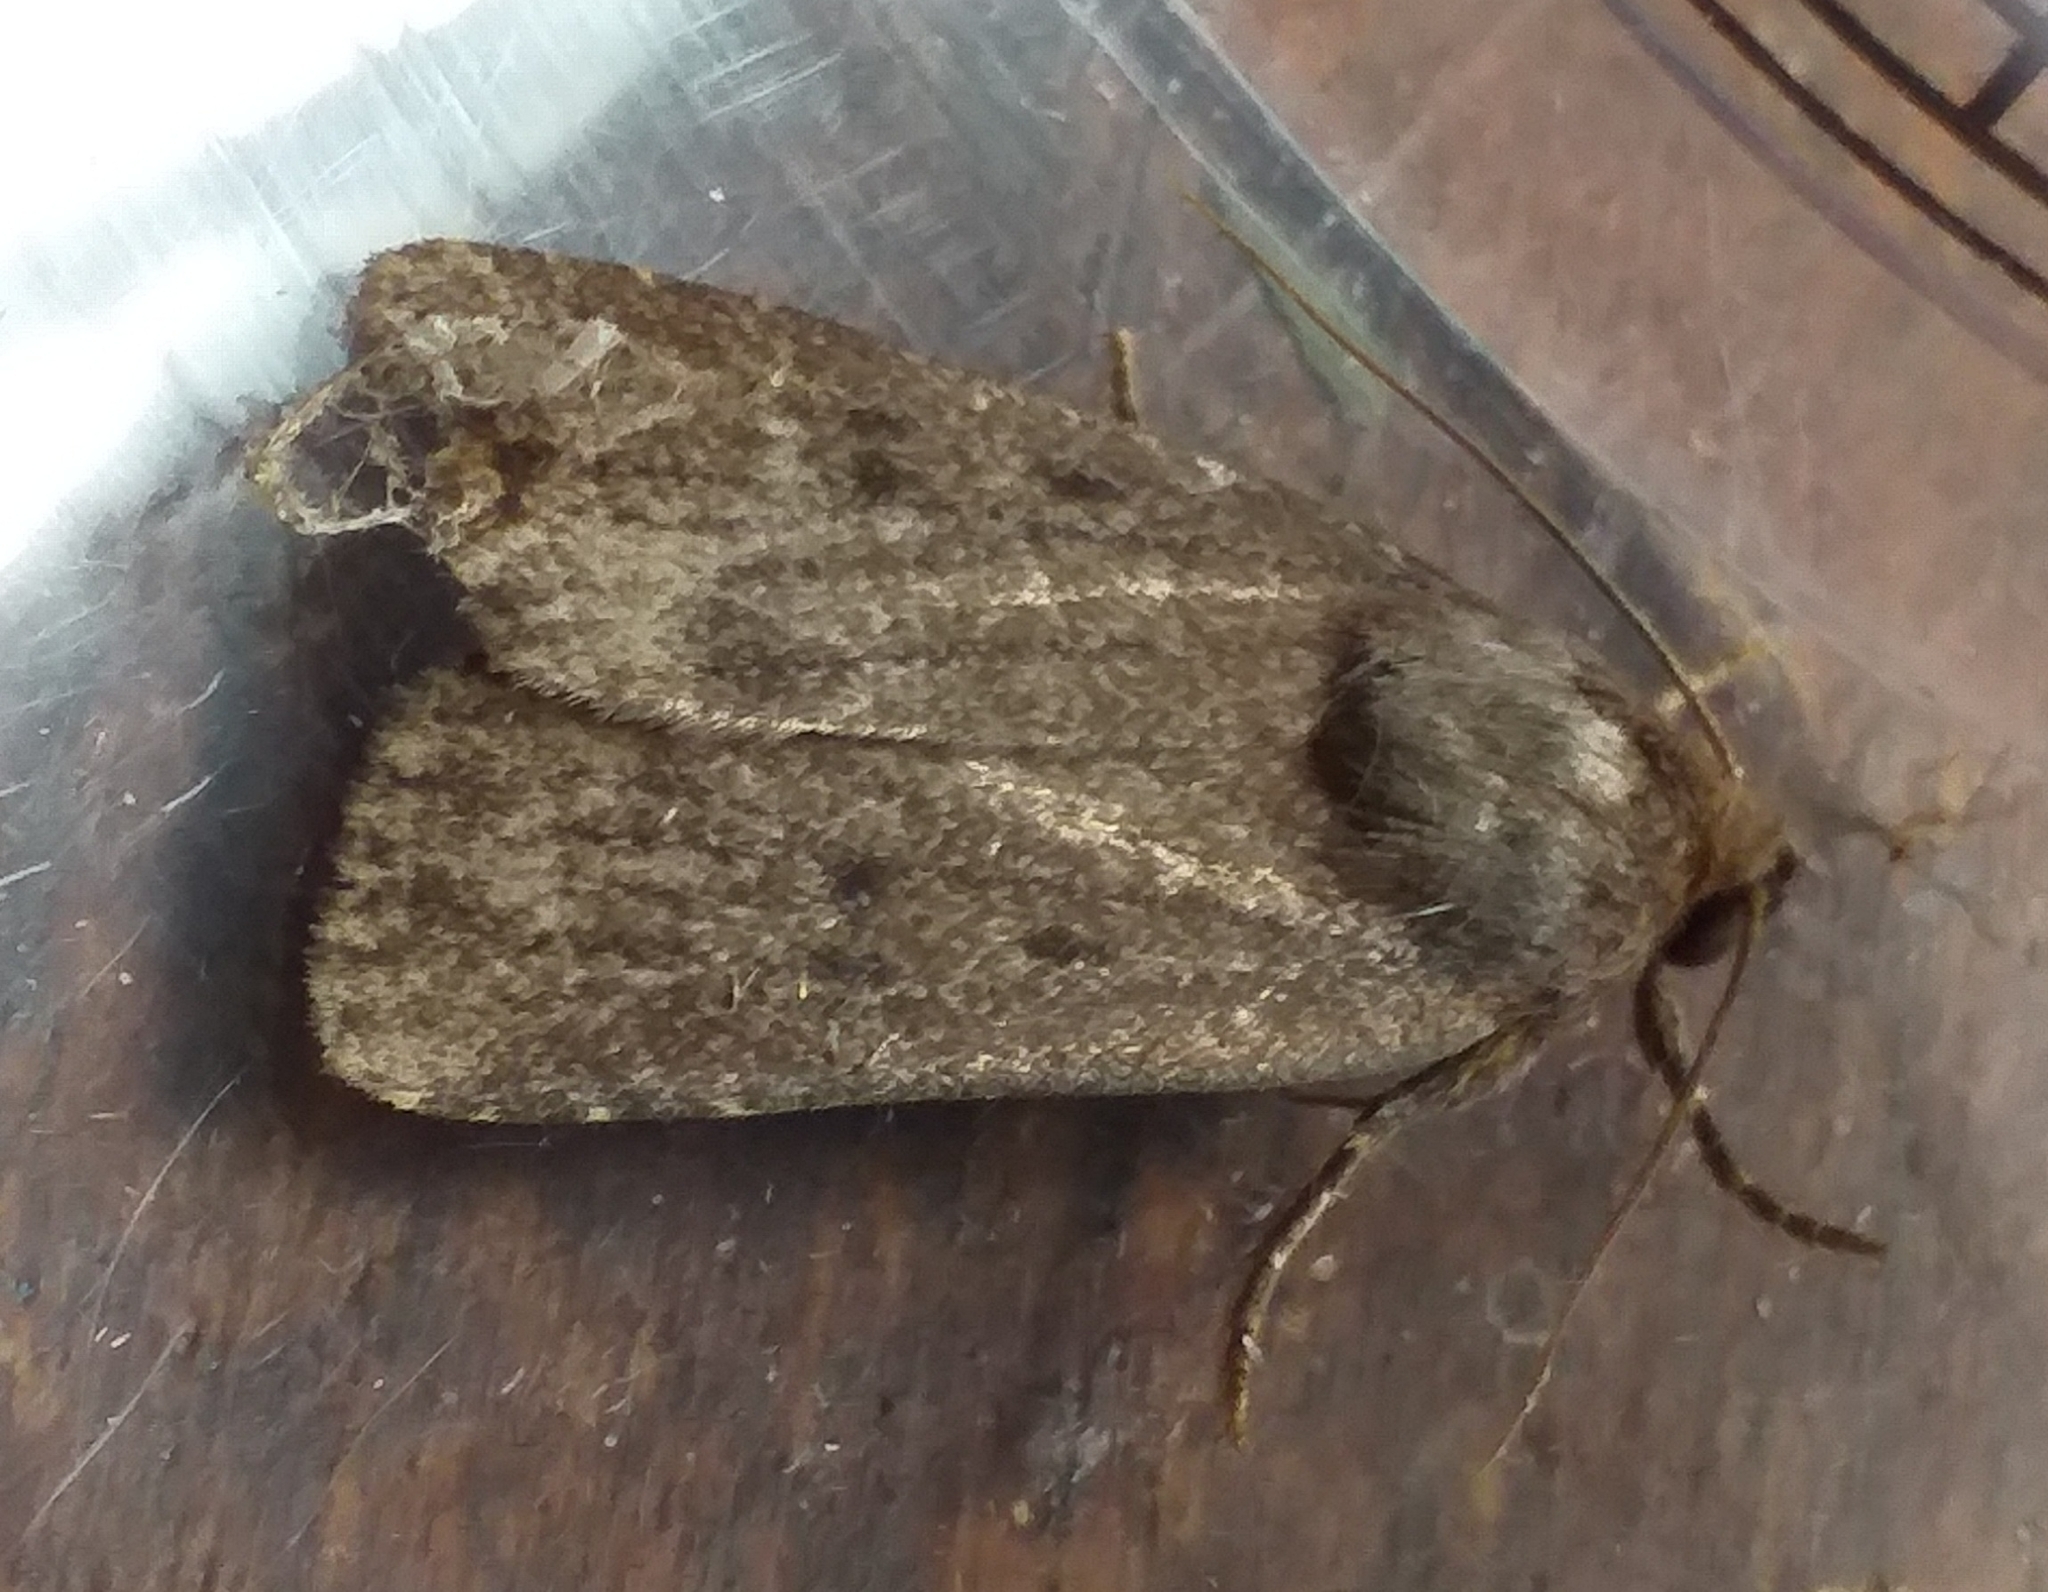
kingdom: Animalia
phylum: Arthropoda
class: Insecta
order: Lepidoptera
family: Noctuidae
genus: Amphipyra
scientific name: Amphipyra tragopoginis
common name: Mouse moth
